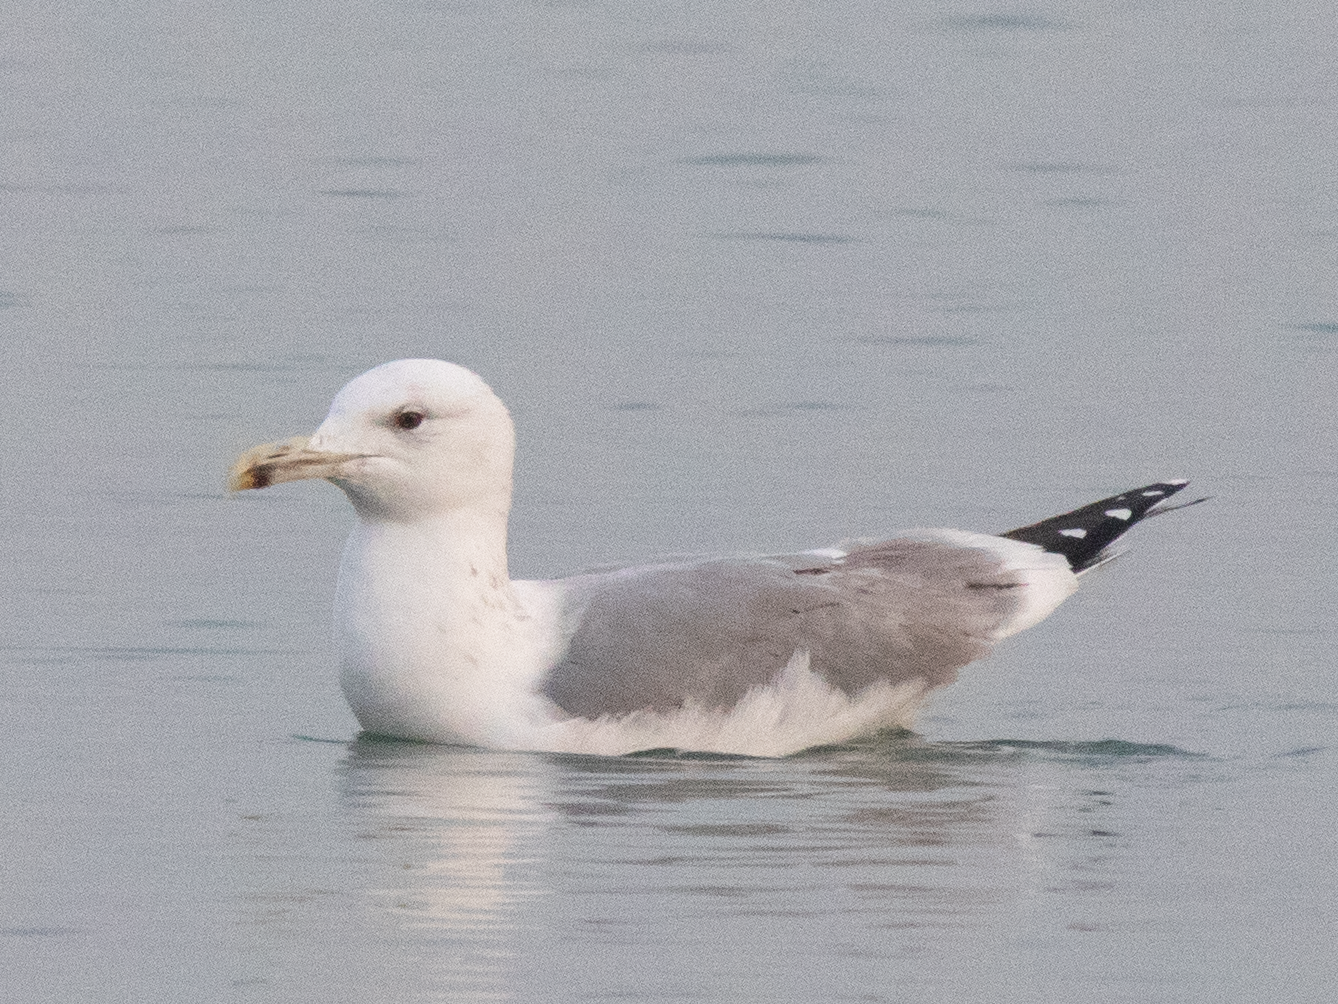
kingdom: Animalia
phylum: Chordata
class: Aves
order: Charadriiformes
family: Laridae
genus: Larus
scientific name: Larus cachinnans
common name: Caspian gull
